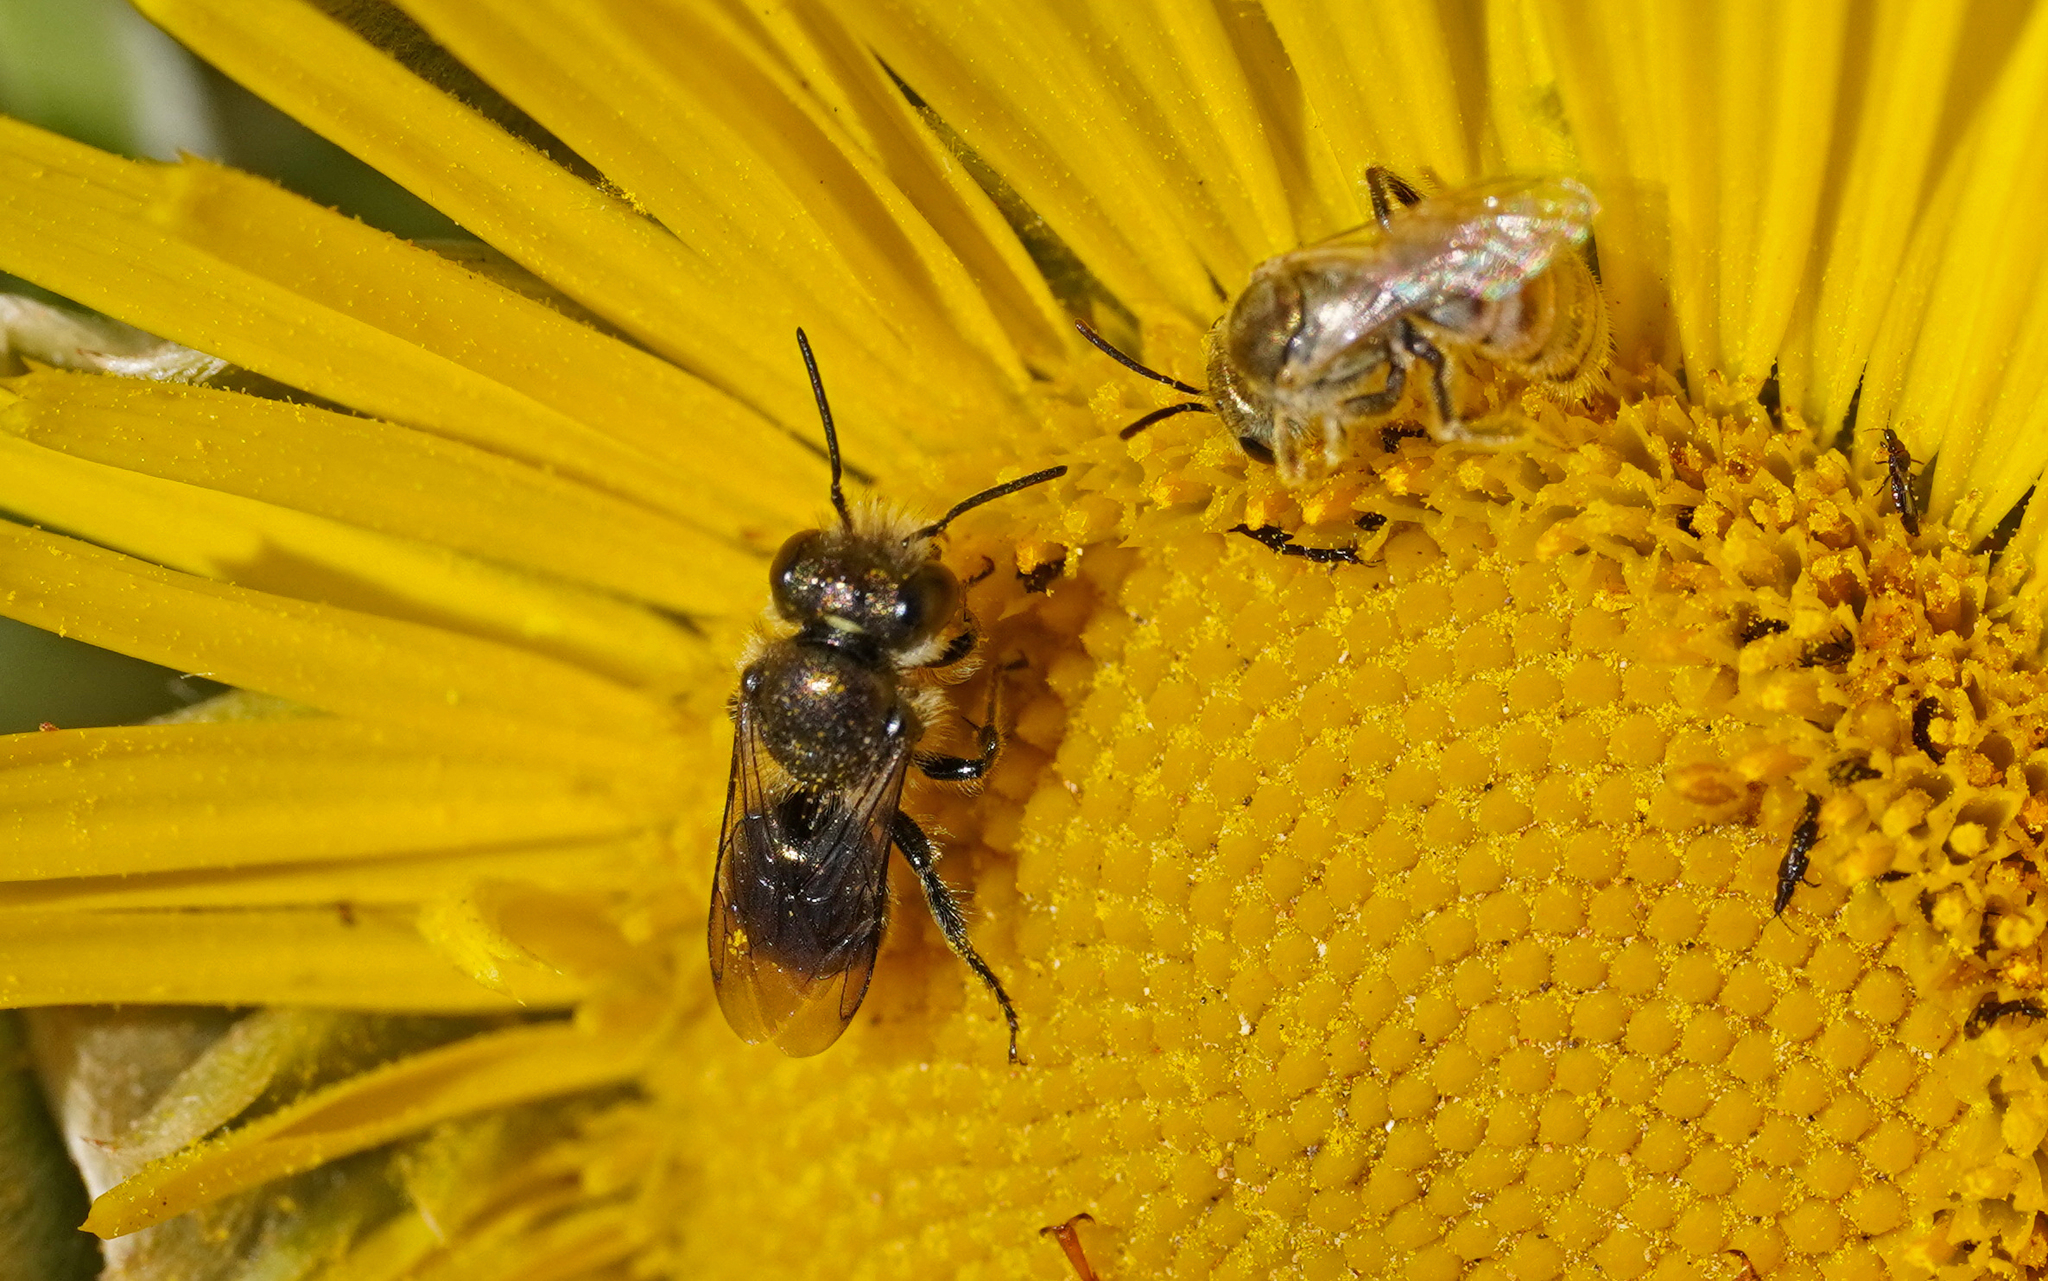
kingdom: Animalia
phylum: Arthropoda
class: Insecta
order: Hymenoptera
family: Megachilidae
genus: Osmia
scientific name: Osmia submicans
